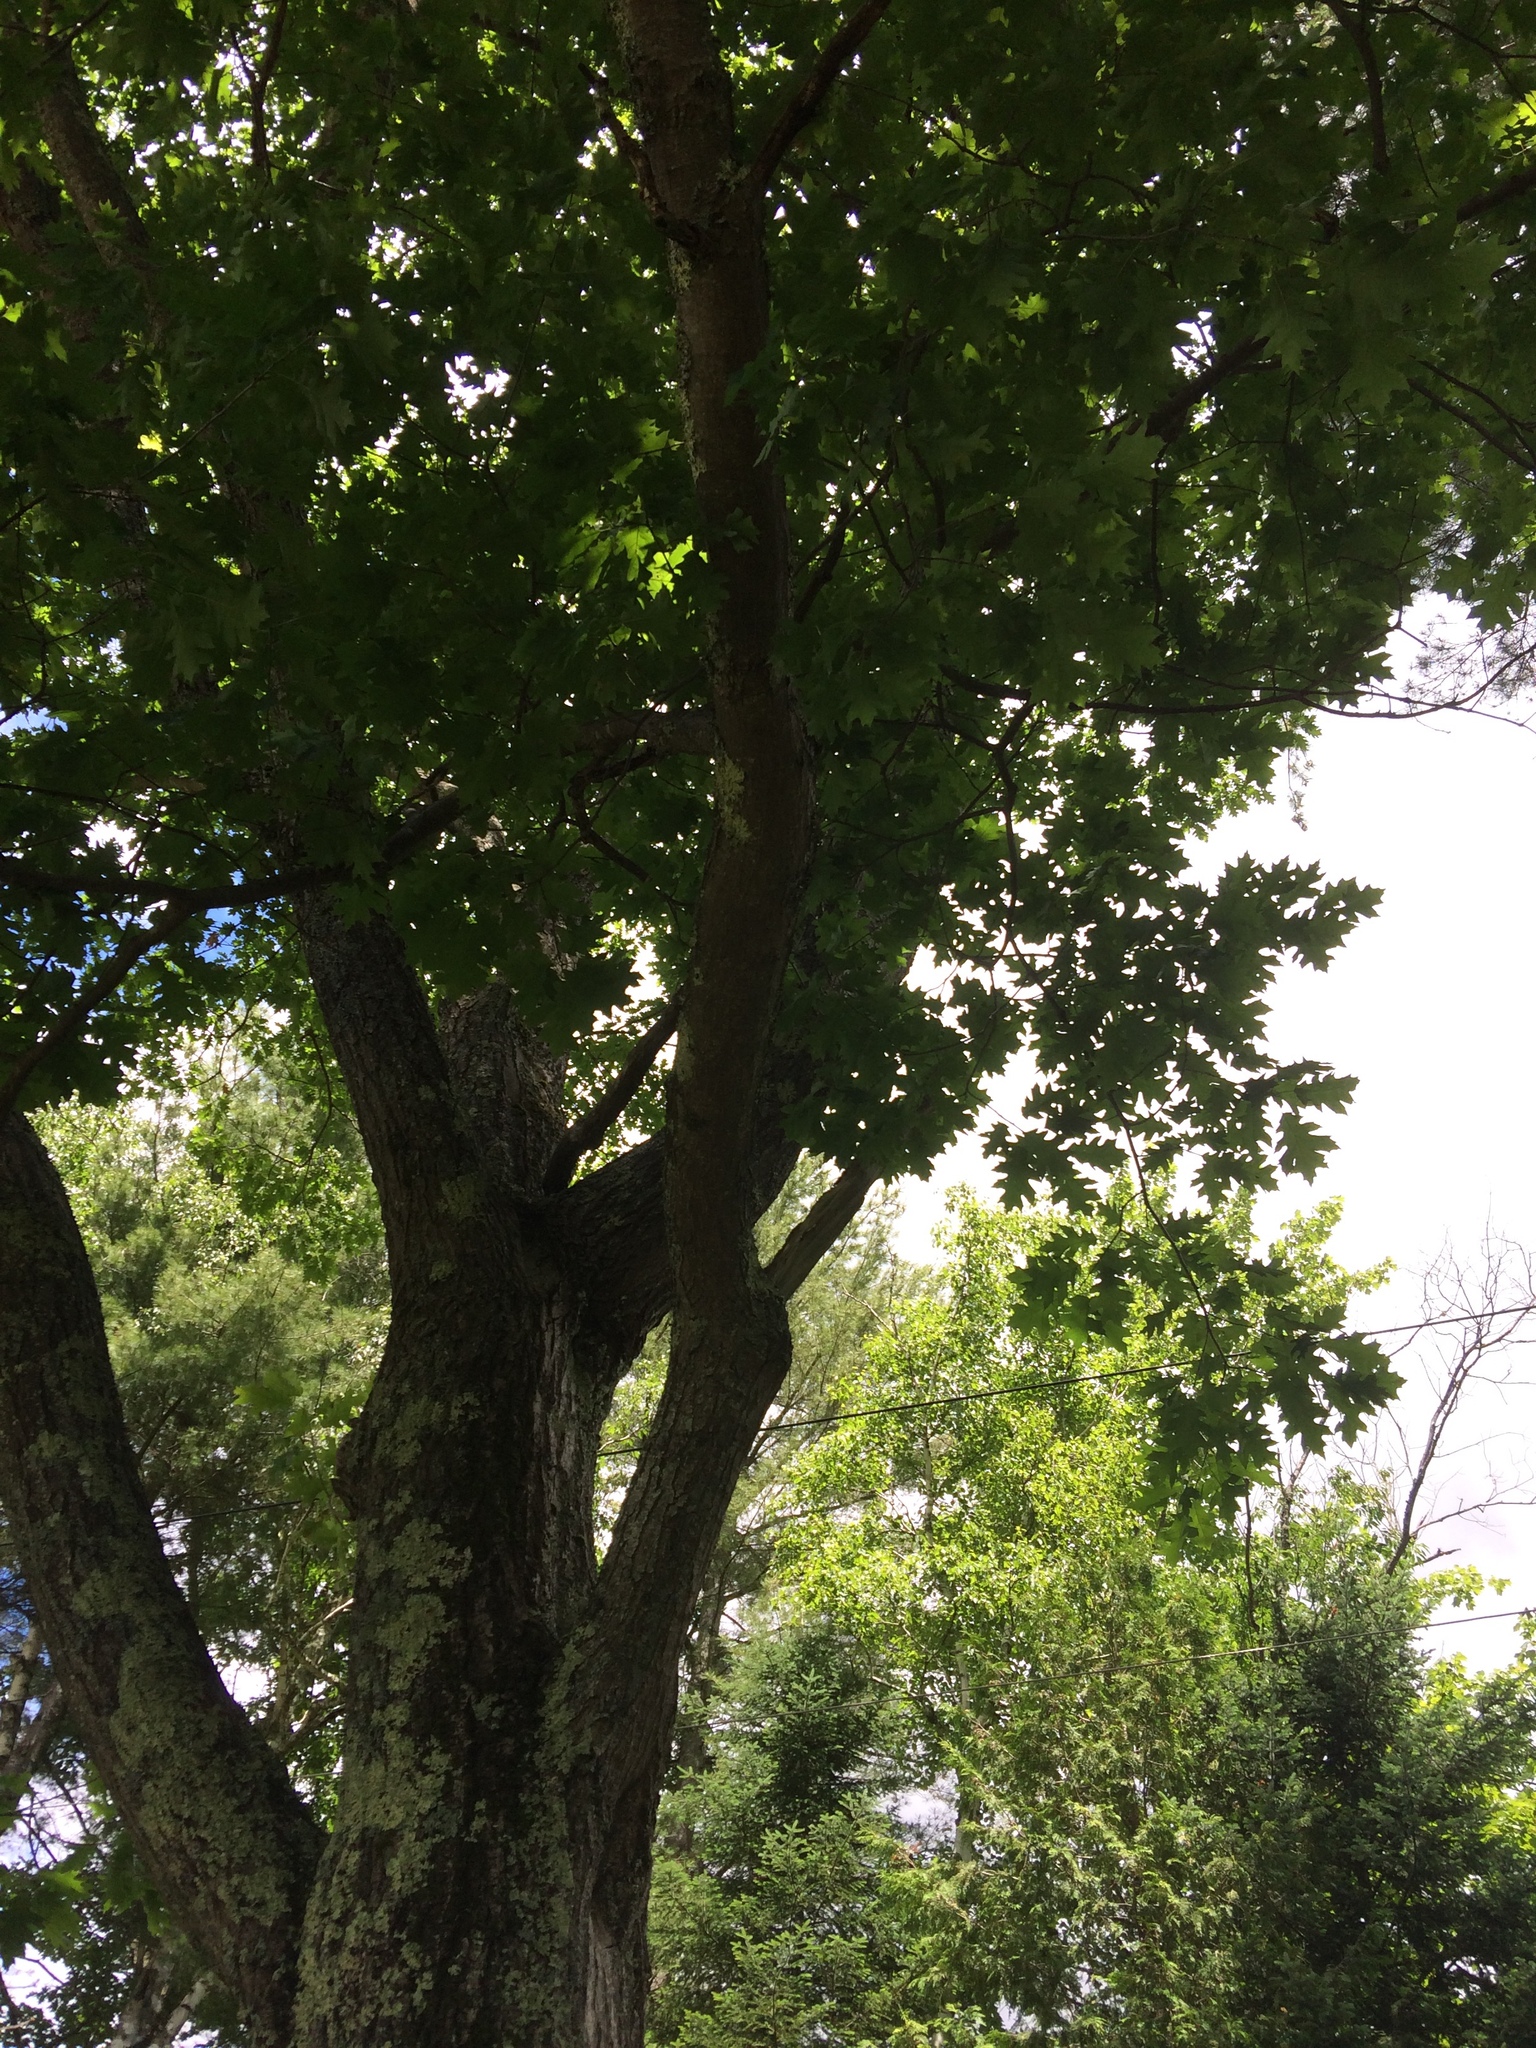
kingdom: Plantae
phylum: Tracheophyta
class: Magnoliopsida
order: Fagales
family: Fagaceae
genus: Quercus
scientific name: Quercus rubra
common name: Red oak
